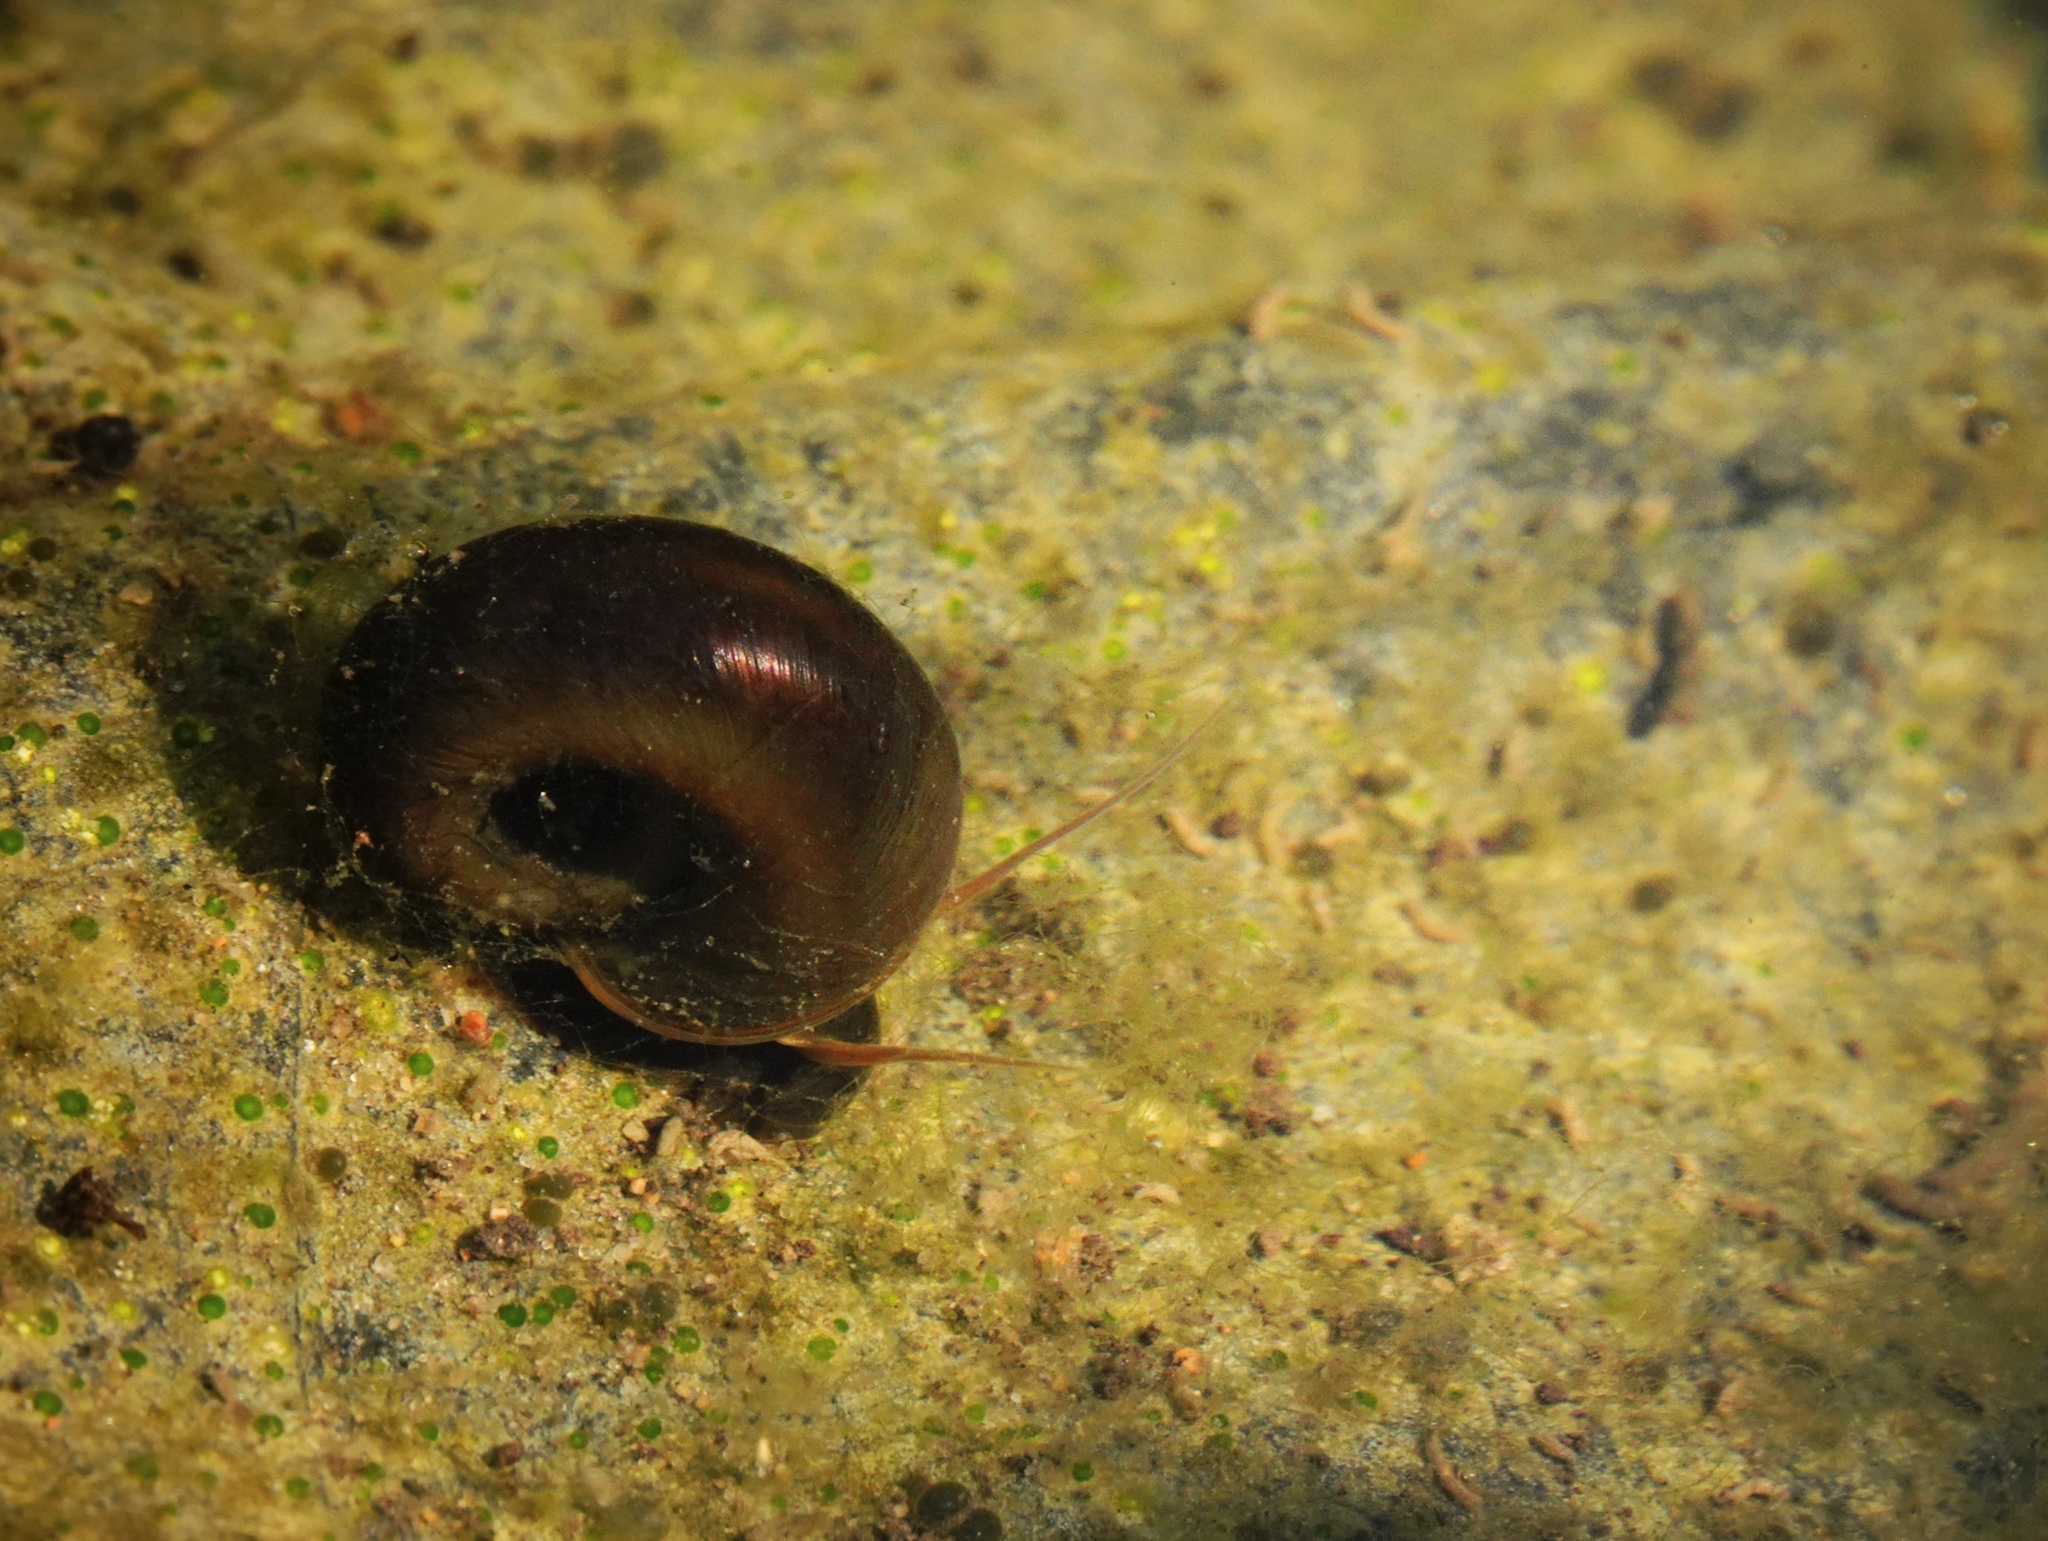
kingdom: Animalia
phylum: Mollusca
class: Gastropoda
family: Planorbidae
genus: Planorbarius
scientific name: Planorbarius corneus
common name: Great ramshorn
